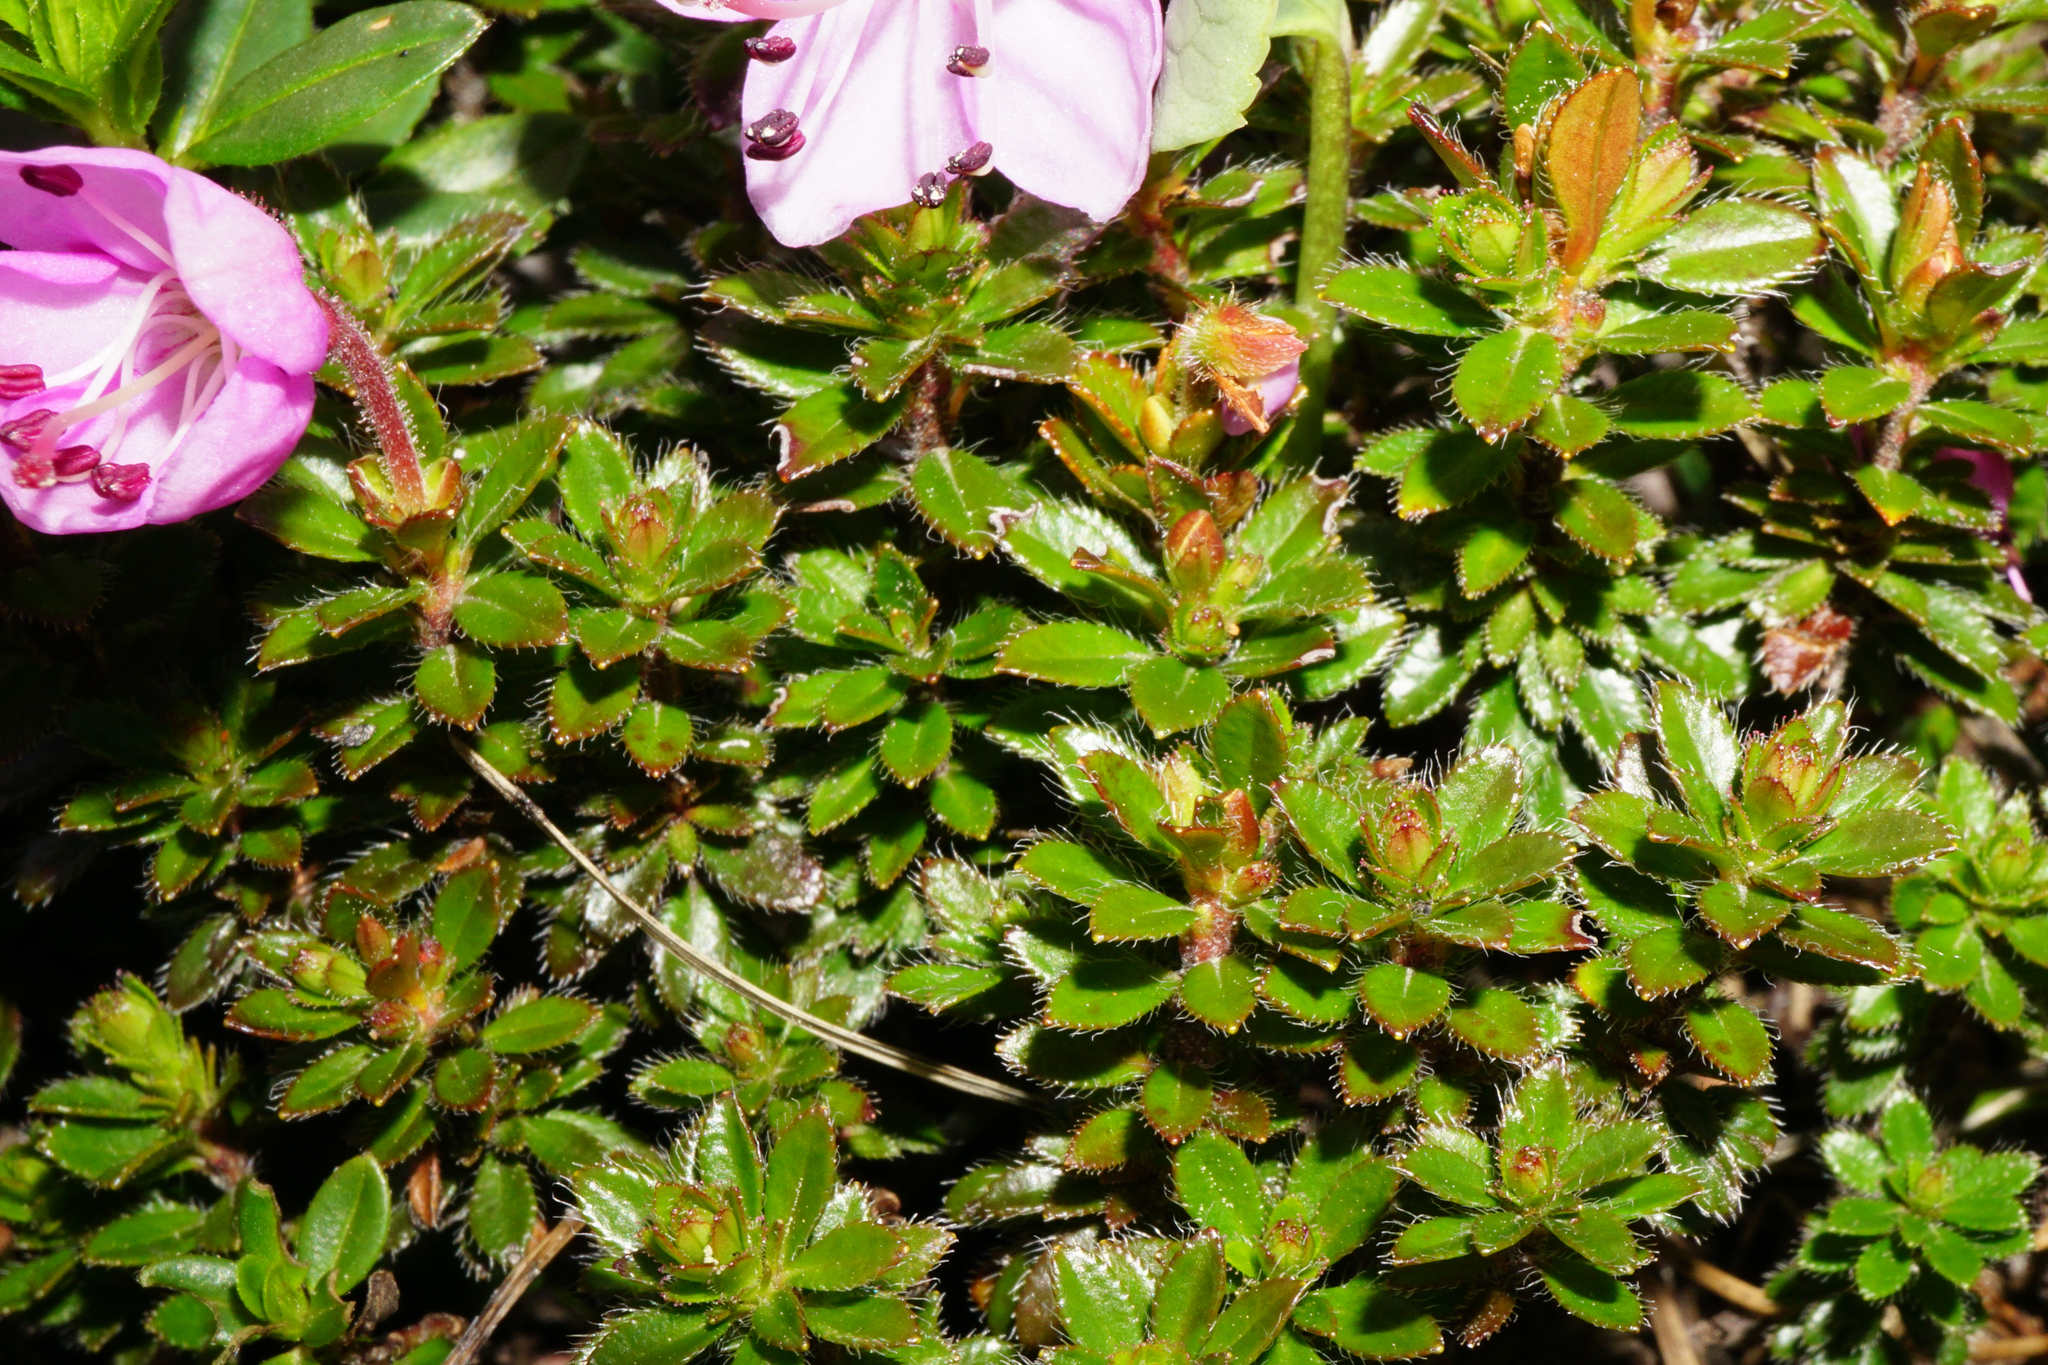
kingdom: Plantae
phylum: Tracheophyta
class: Magnoliopsida
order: Ericales
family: Ericaceae
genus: Rhodothamnus
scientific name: Rhodothamnus chamaecistus
